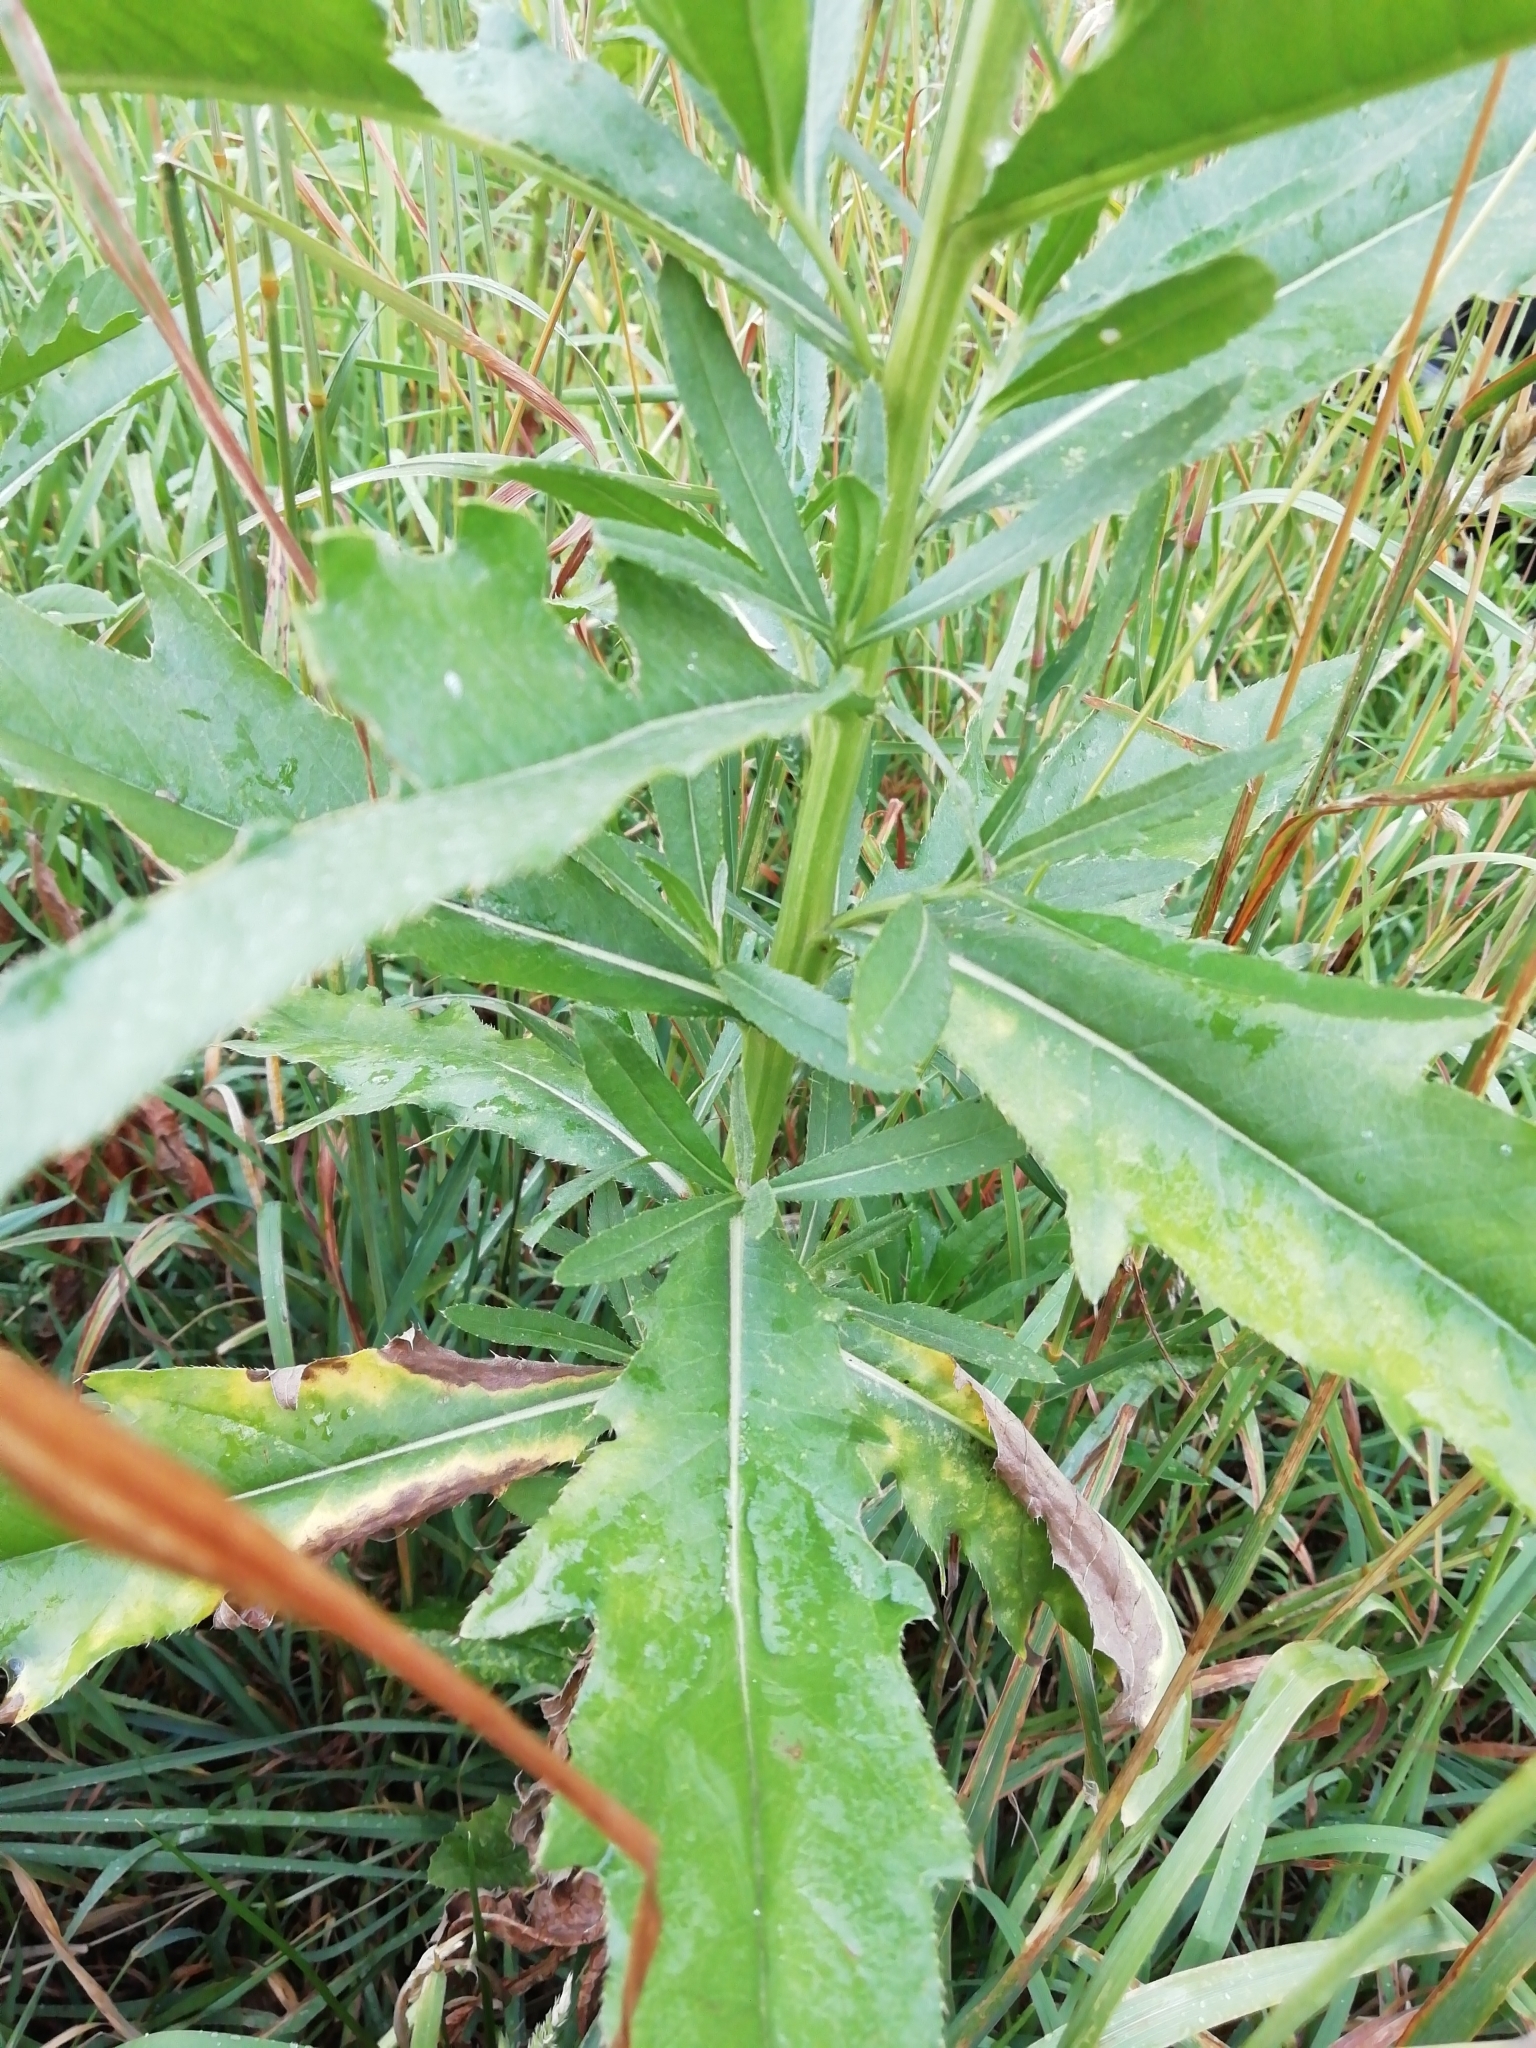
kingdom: Plantae
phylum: Tracheophyta
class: Magnoliopsida
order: Asterales
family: Asteraceae
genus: Cirsium
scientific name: Cirsium arvense
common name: Creeping thistle
